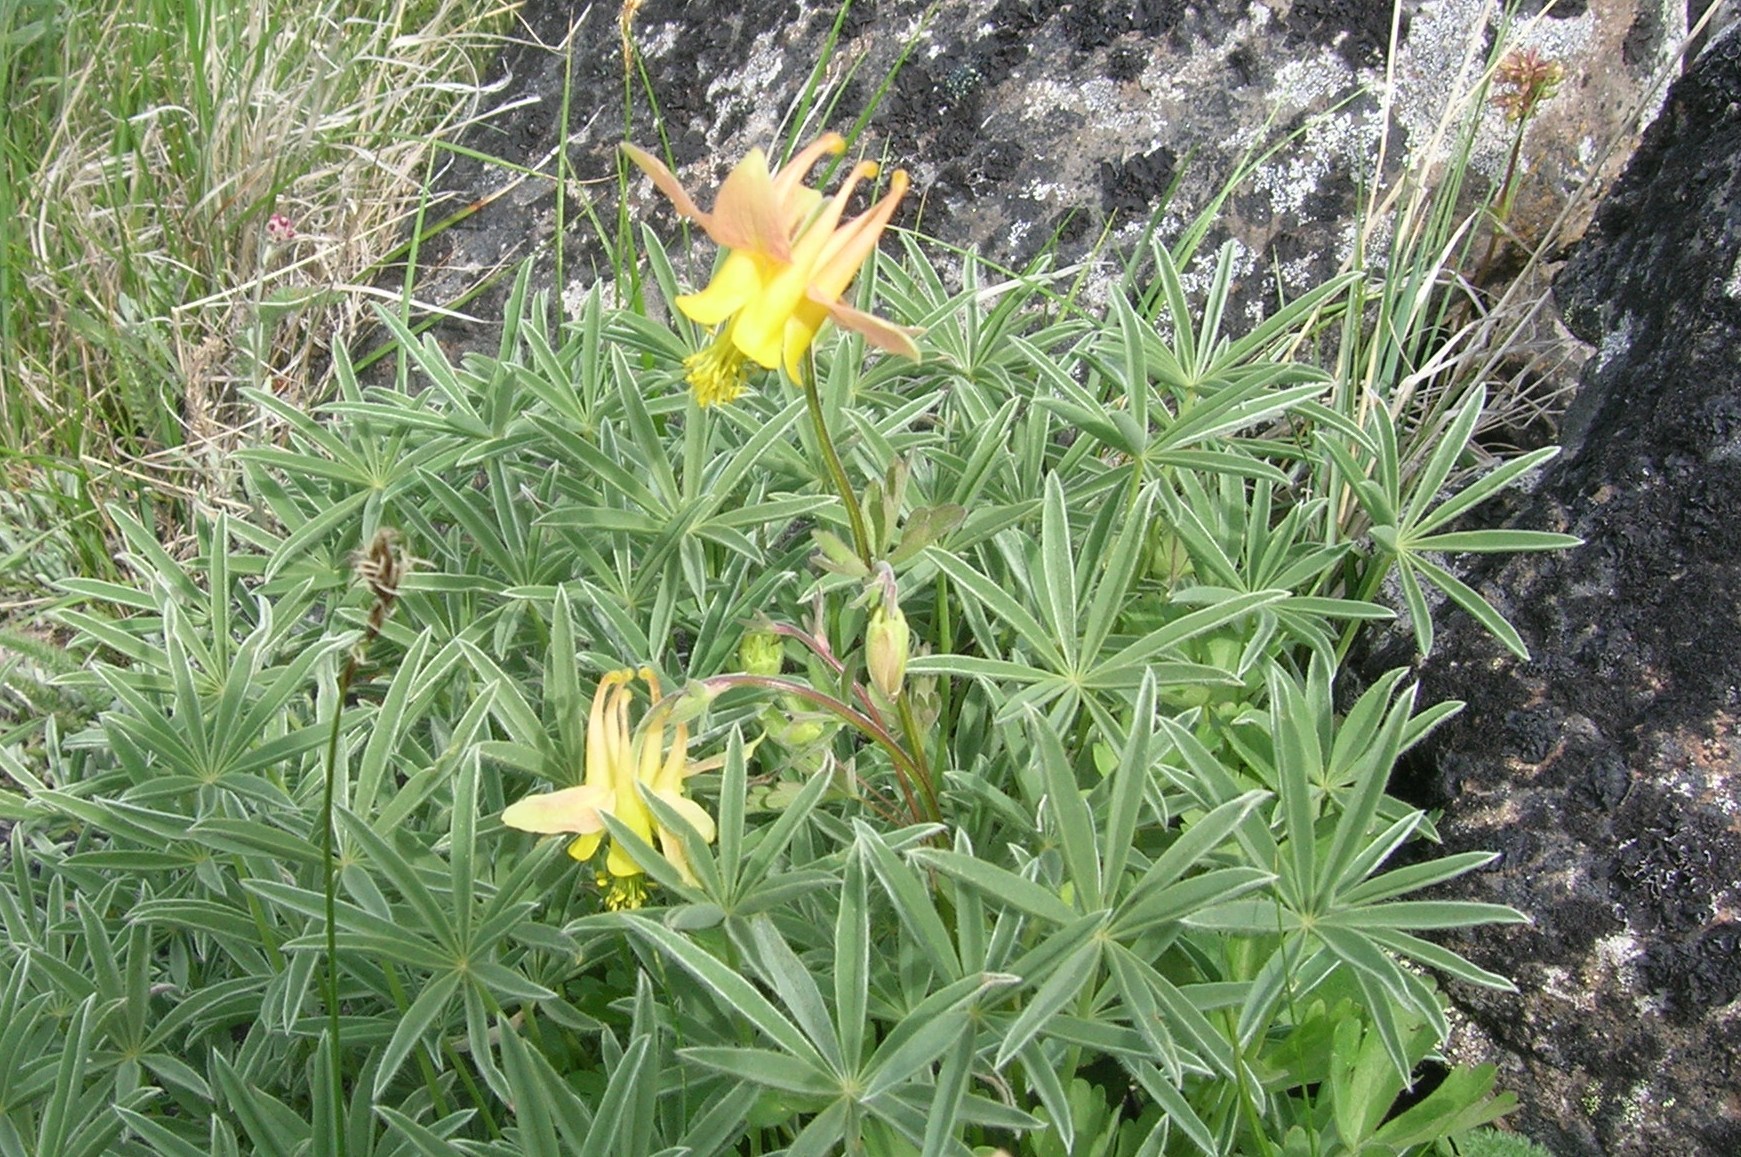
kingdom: Plantae
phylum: Tracheophyta
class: Magnoliopsida
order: Ranunculales
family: Ranunculaceae
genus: Aquilegia
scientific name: Aquilegia miniana
